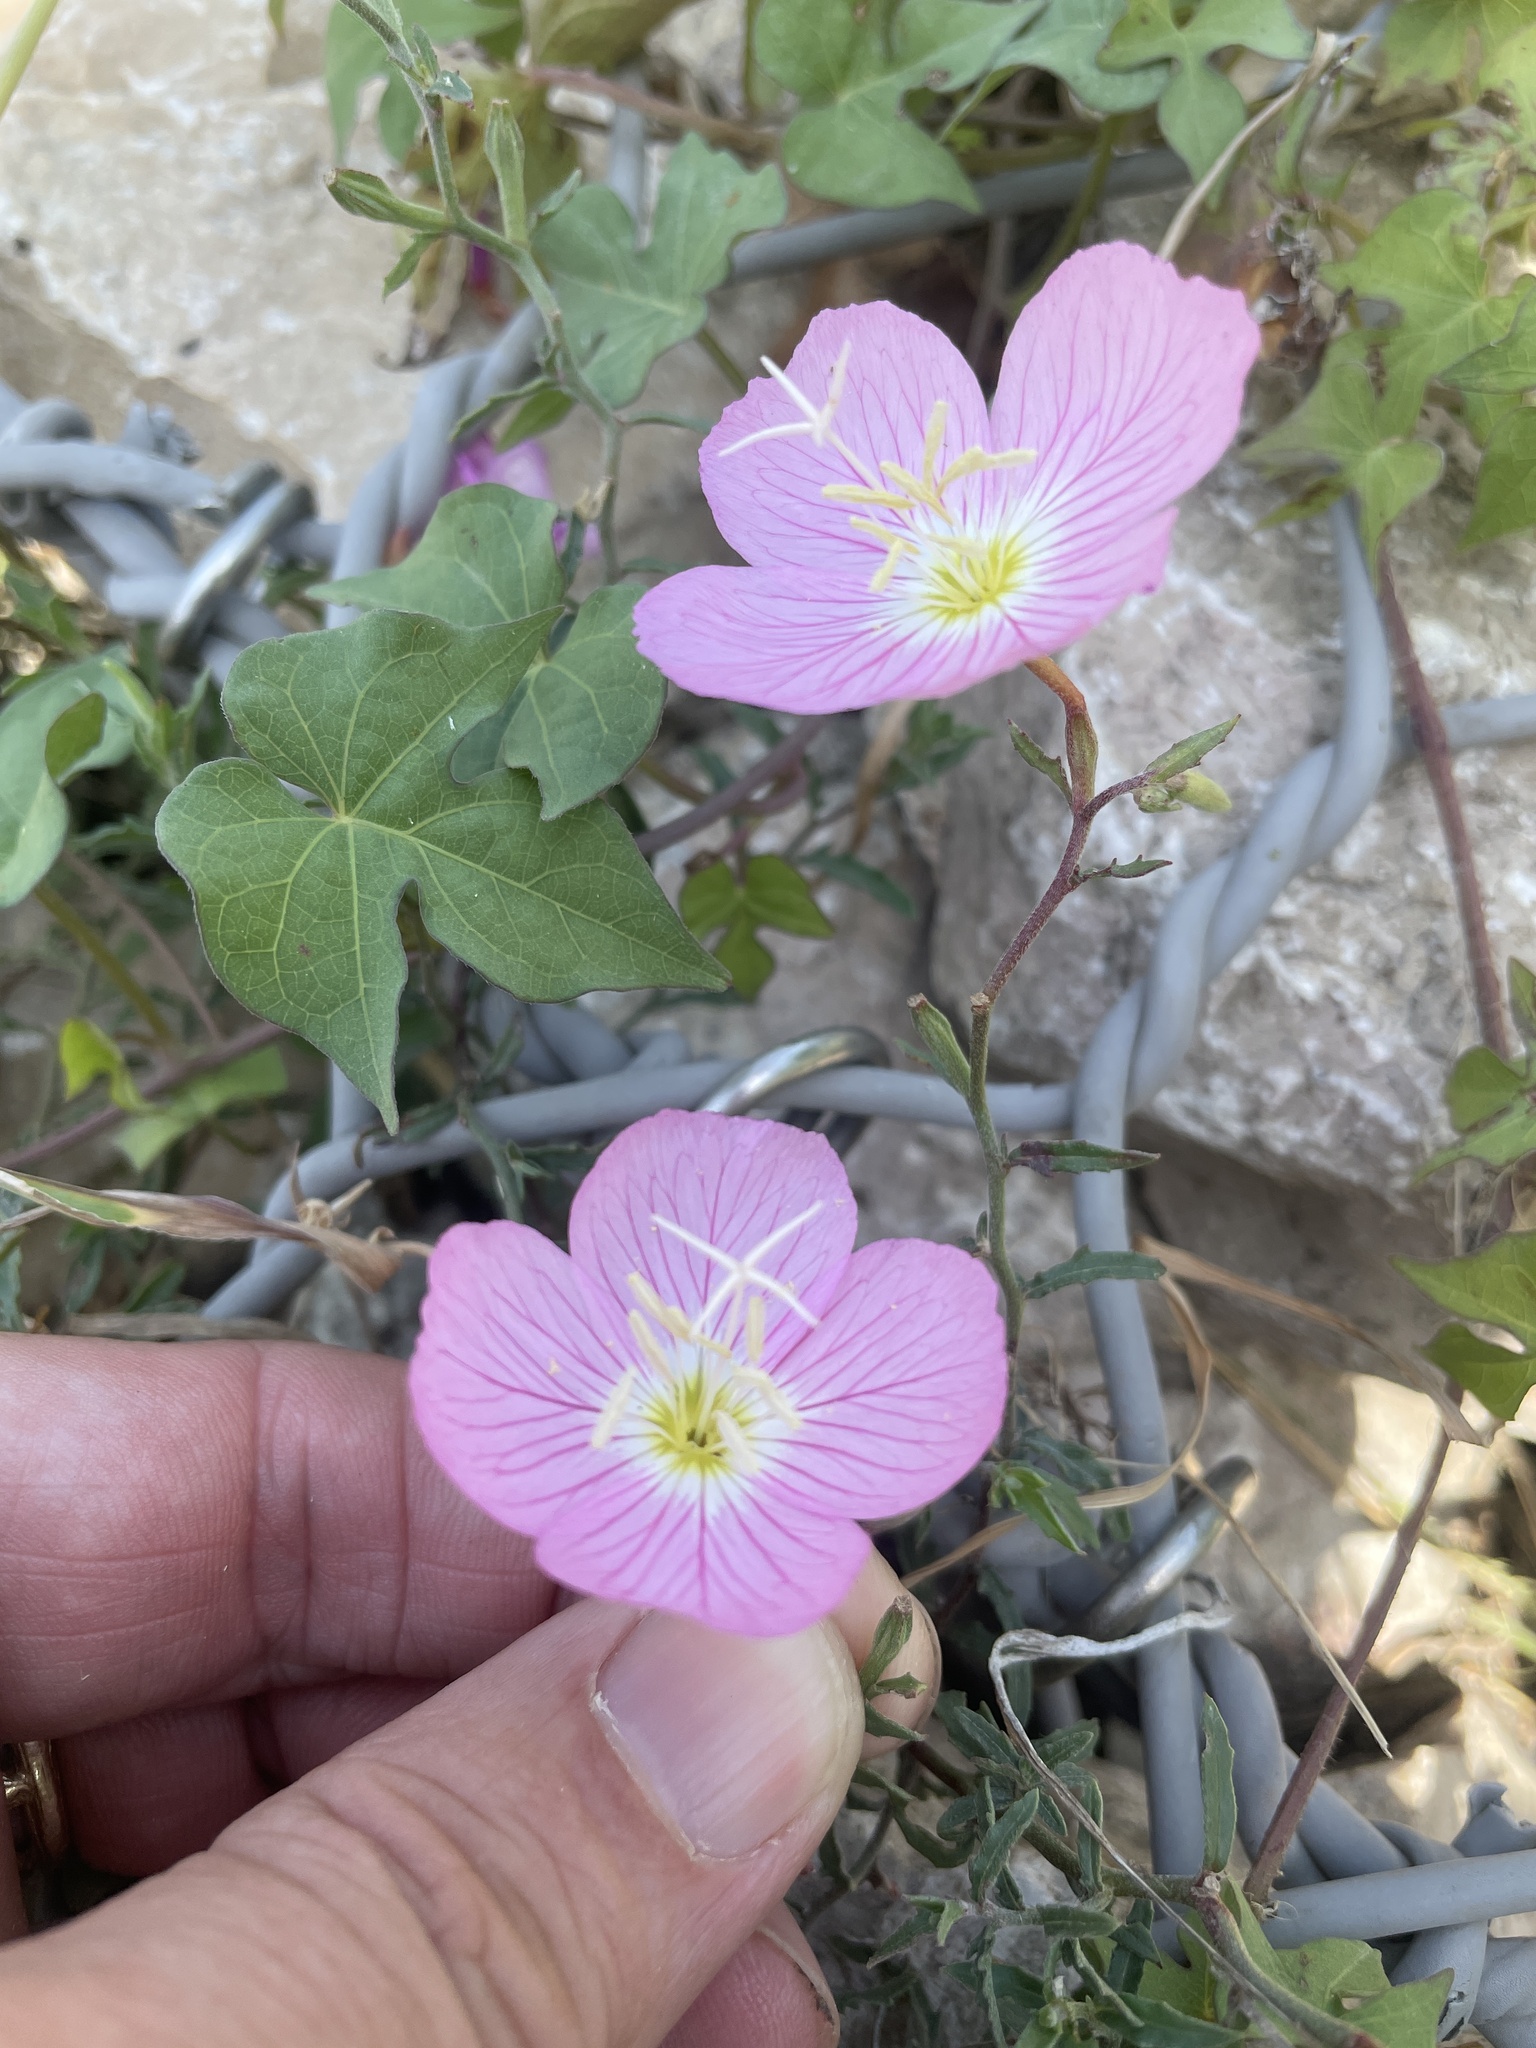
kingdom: Plantae
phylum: Tracheophyta
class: Magnoliopsida
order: Myrtales
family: Onagraceae
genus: Oenothera
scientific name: Oenothera speciosa
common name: White evening-primrose
